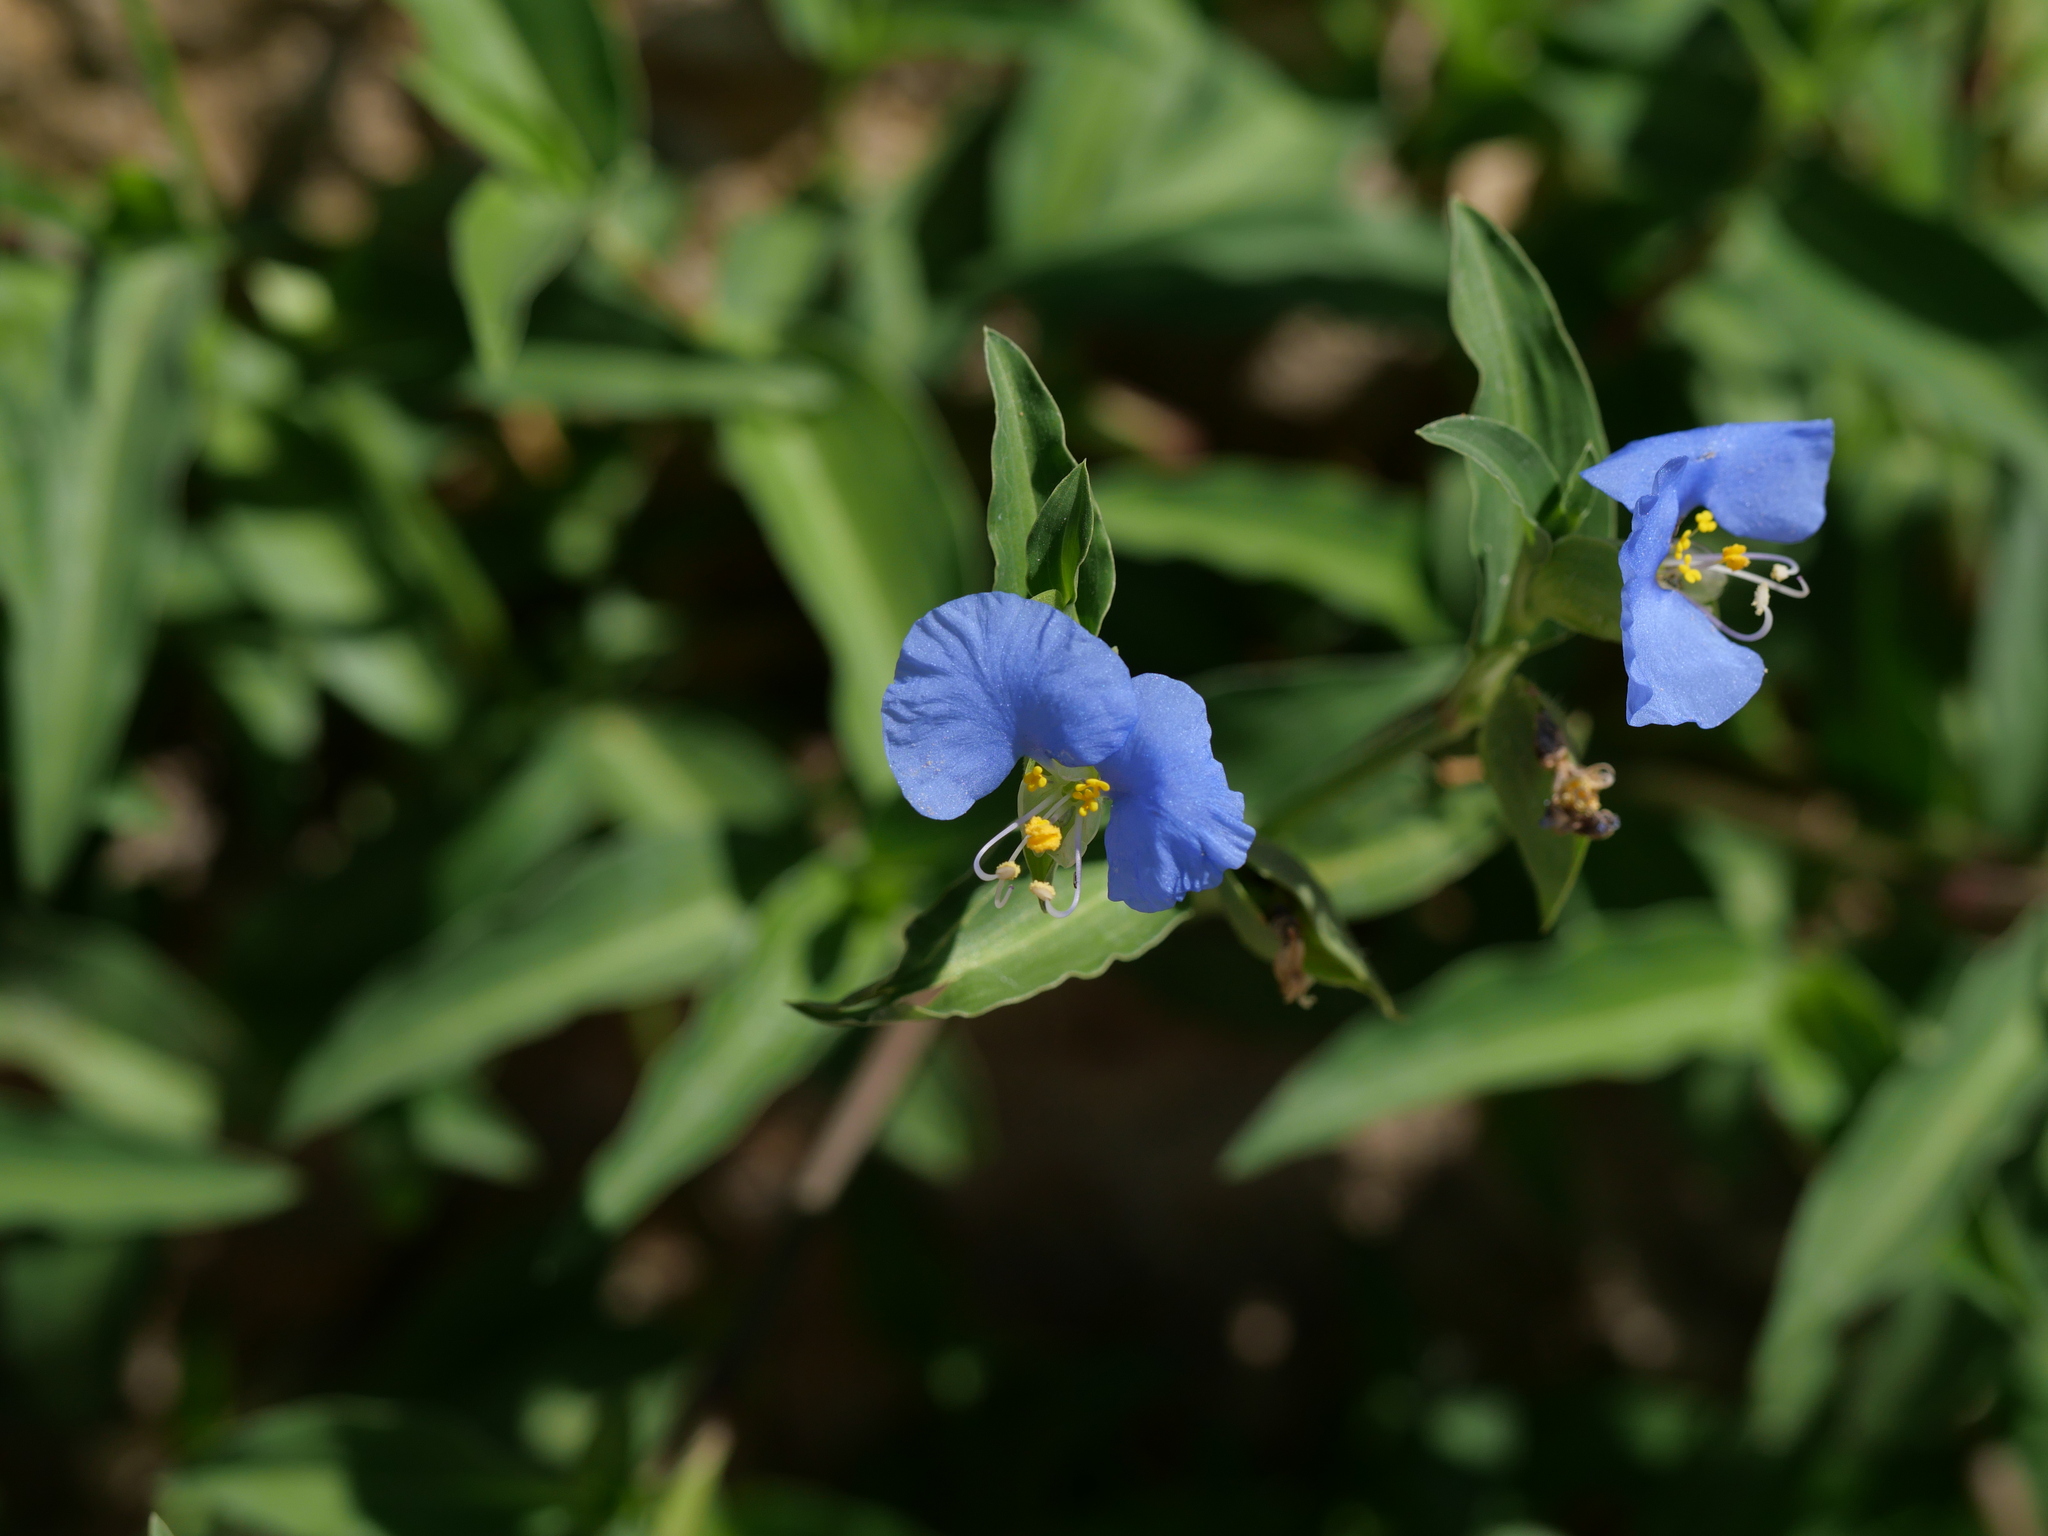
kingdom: Plantae
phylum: Tracheophyta
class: Liliopsida
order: Commelinales
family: Commelinaceae
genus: Commelina
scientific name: Commelina communis
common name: Asiatic dayflower
